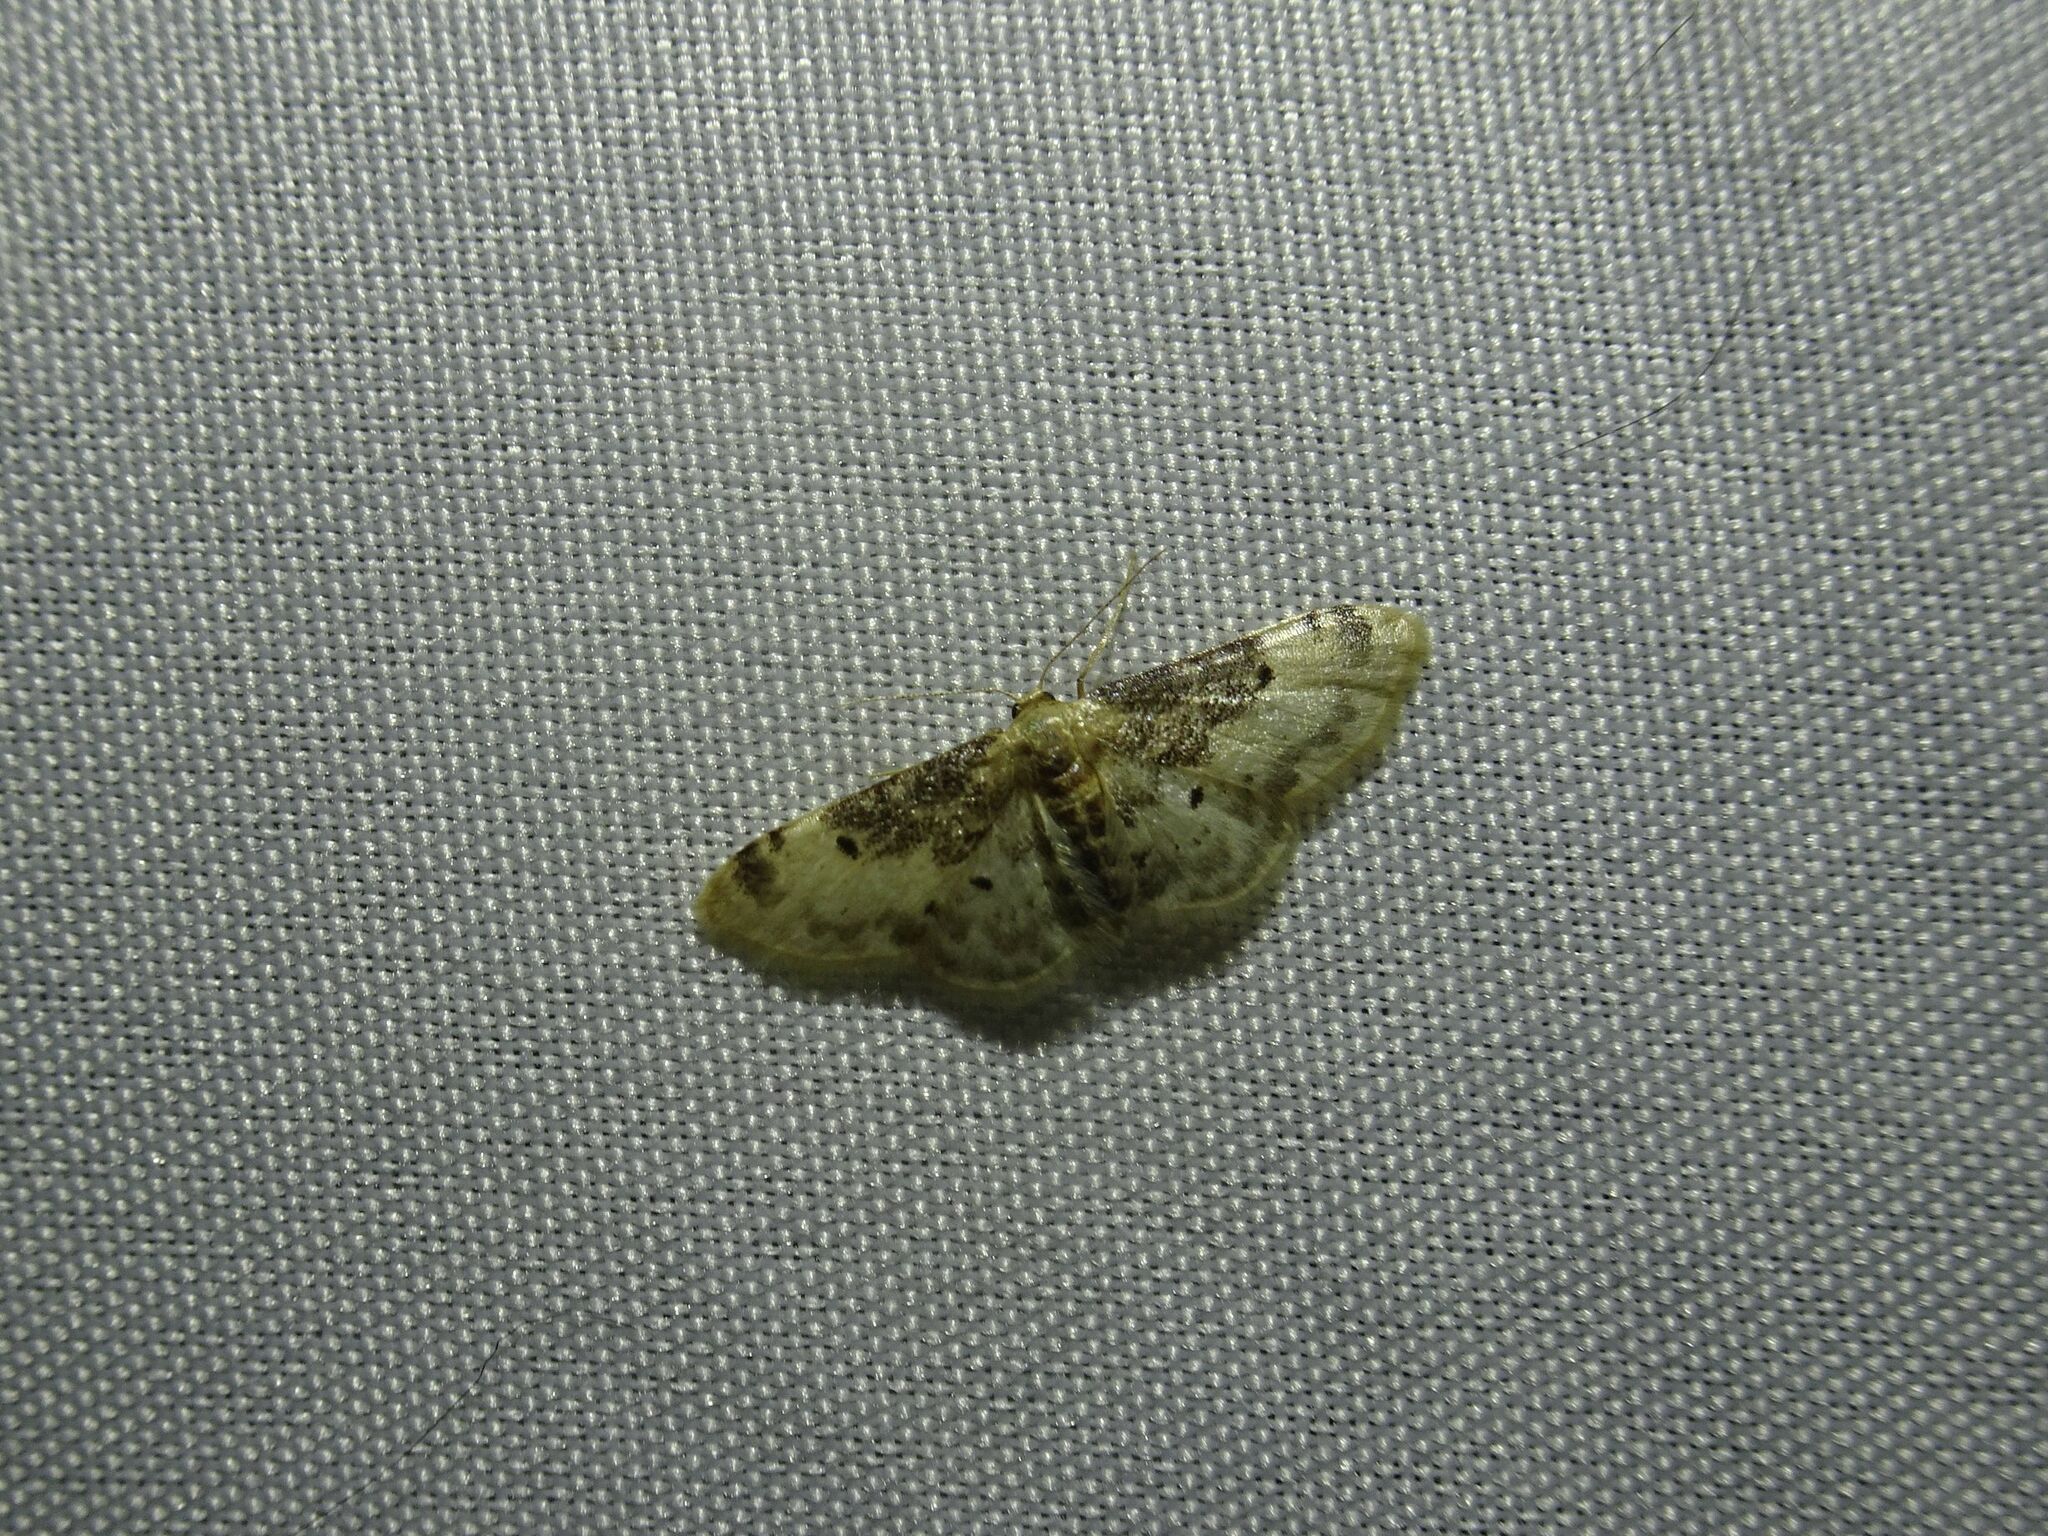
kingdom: Animalia
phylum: Arthropoda
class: Insecta
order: Lepidoptera
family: Geometridae
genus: Idaea
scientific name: Idaea filicata
